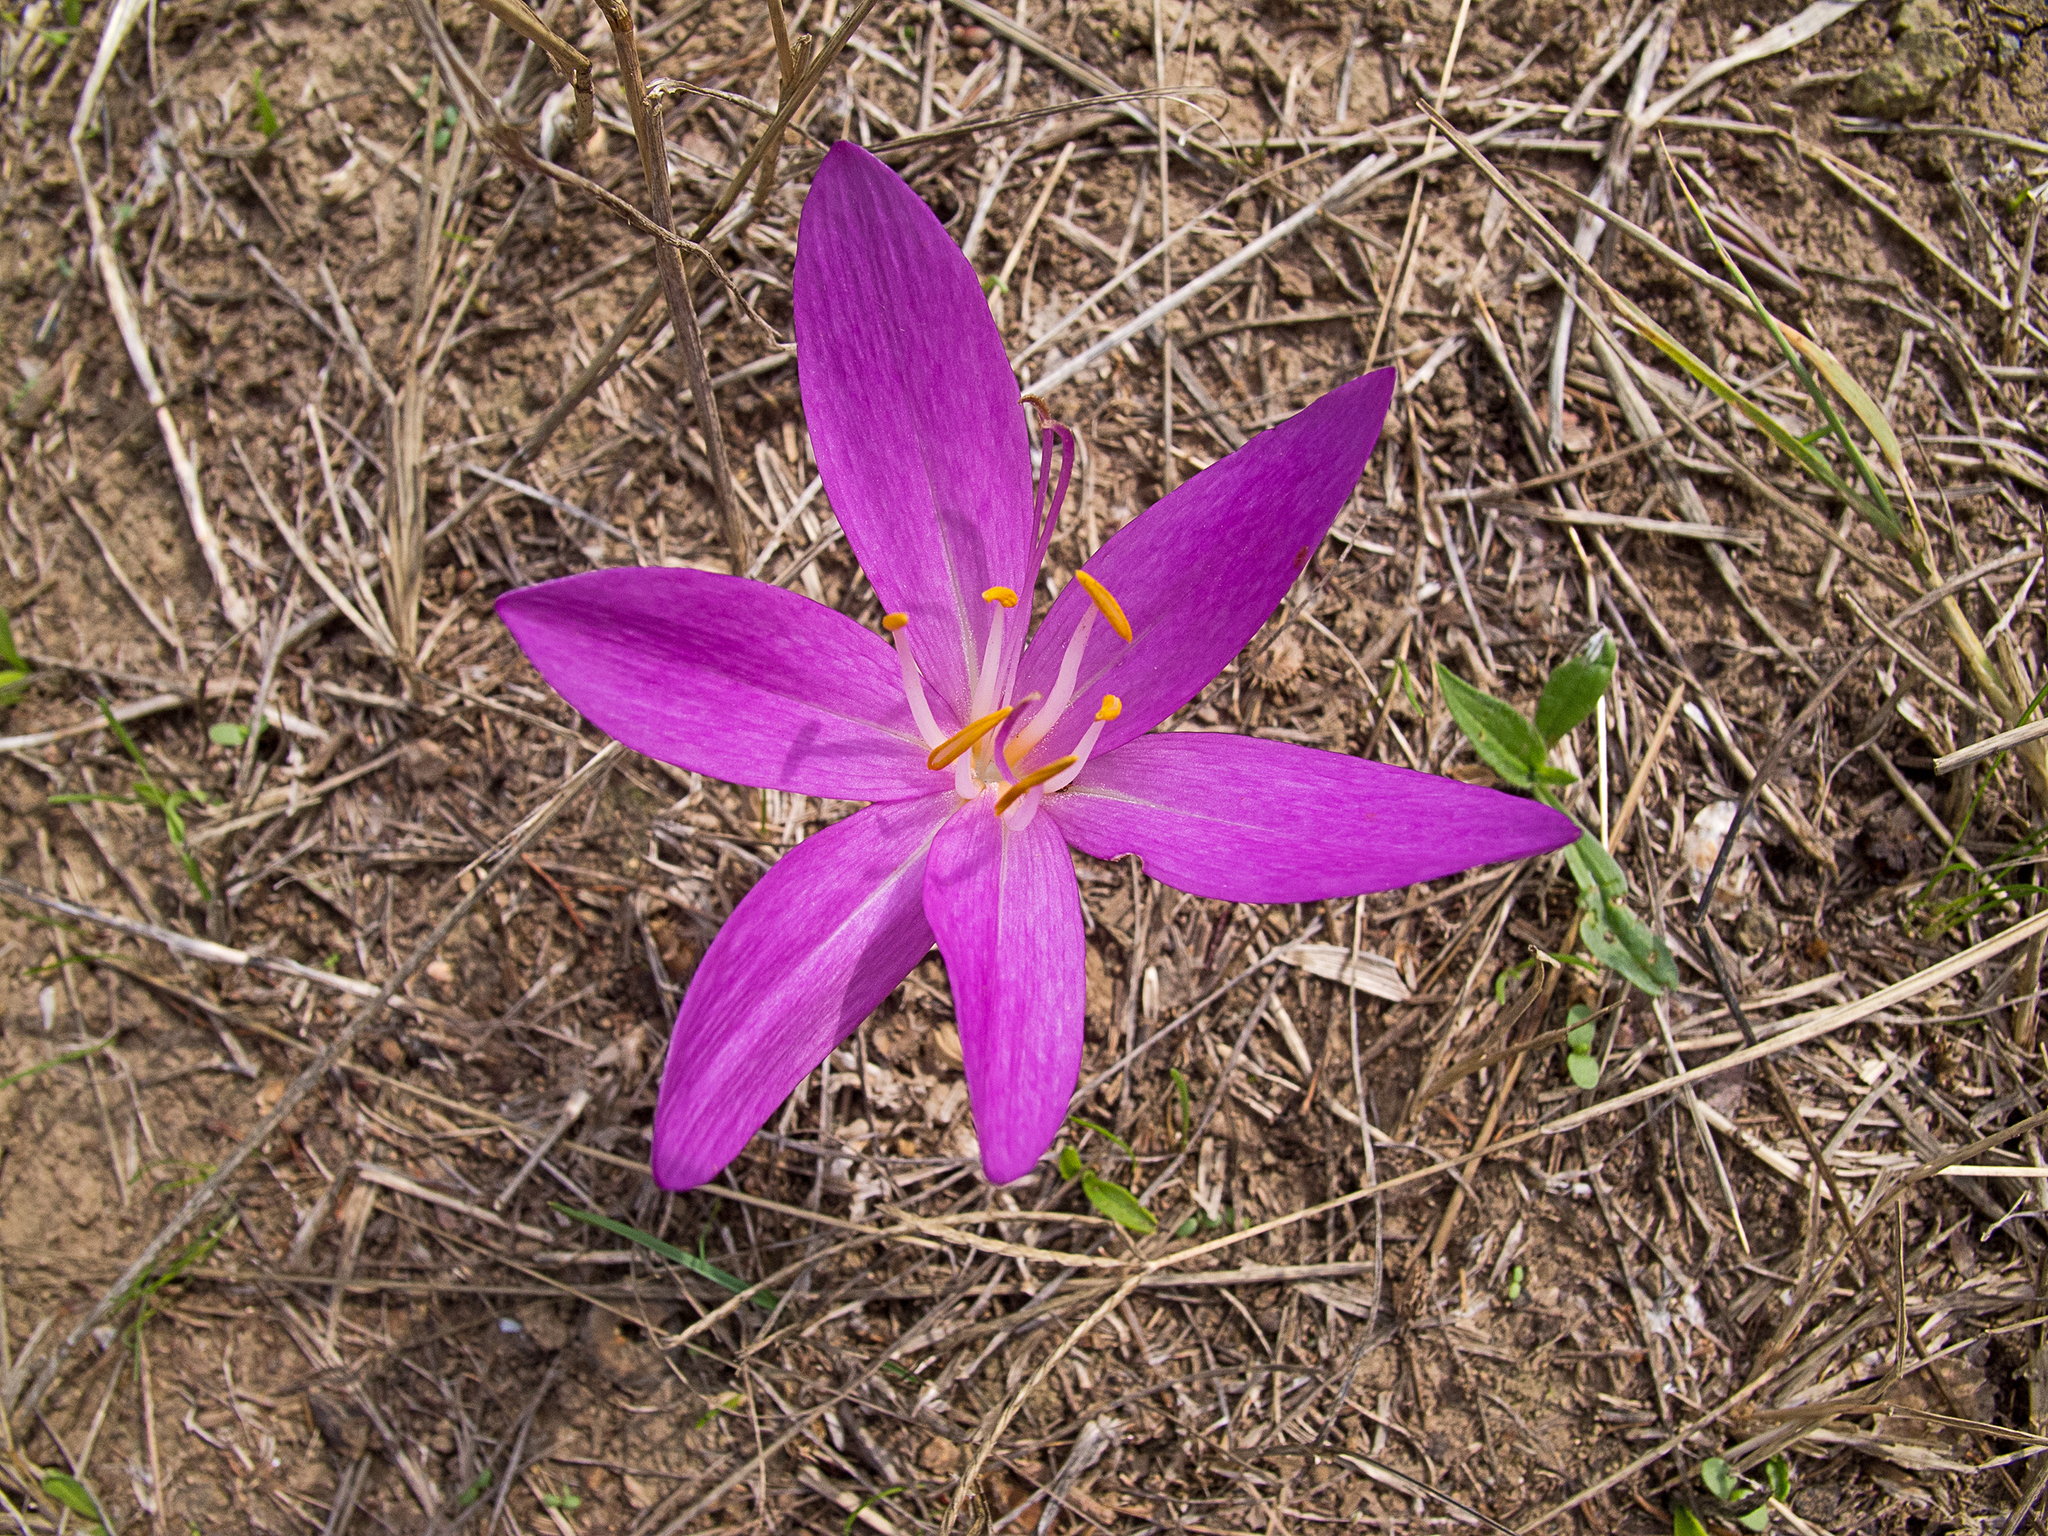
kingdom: Plantae
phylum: Tracheophyta
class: Liliopsida
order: Liliales
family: Colchicaceae
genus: Colchicum
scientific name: Colchicum autumnale
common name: Autumn crocus
